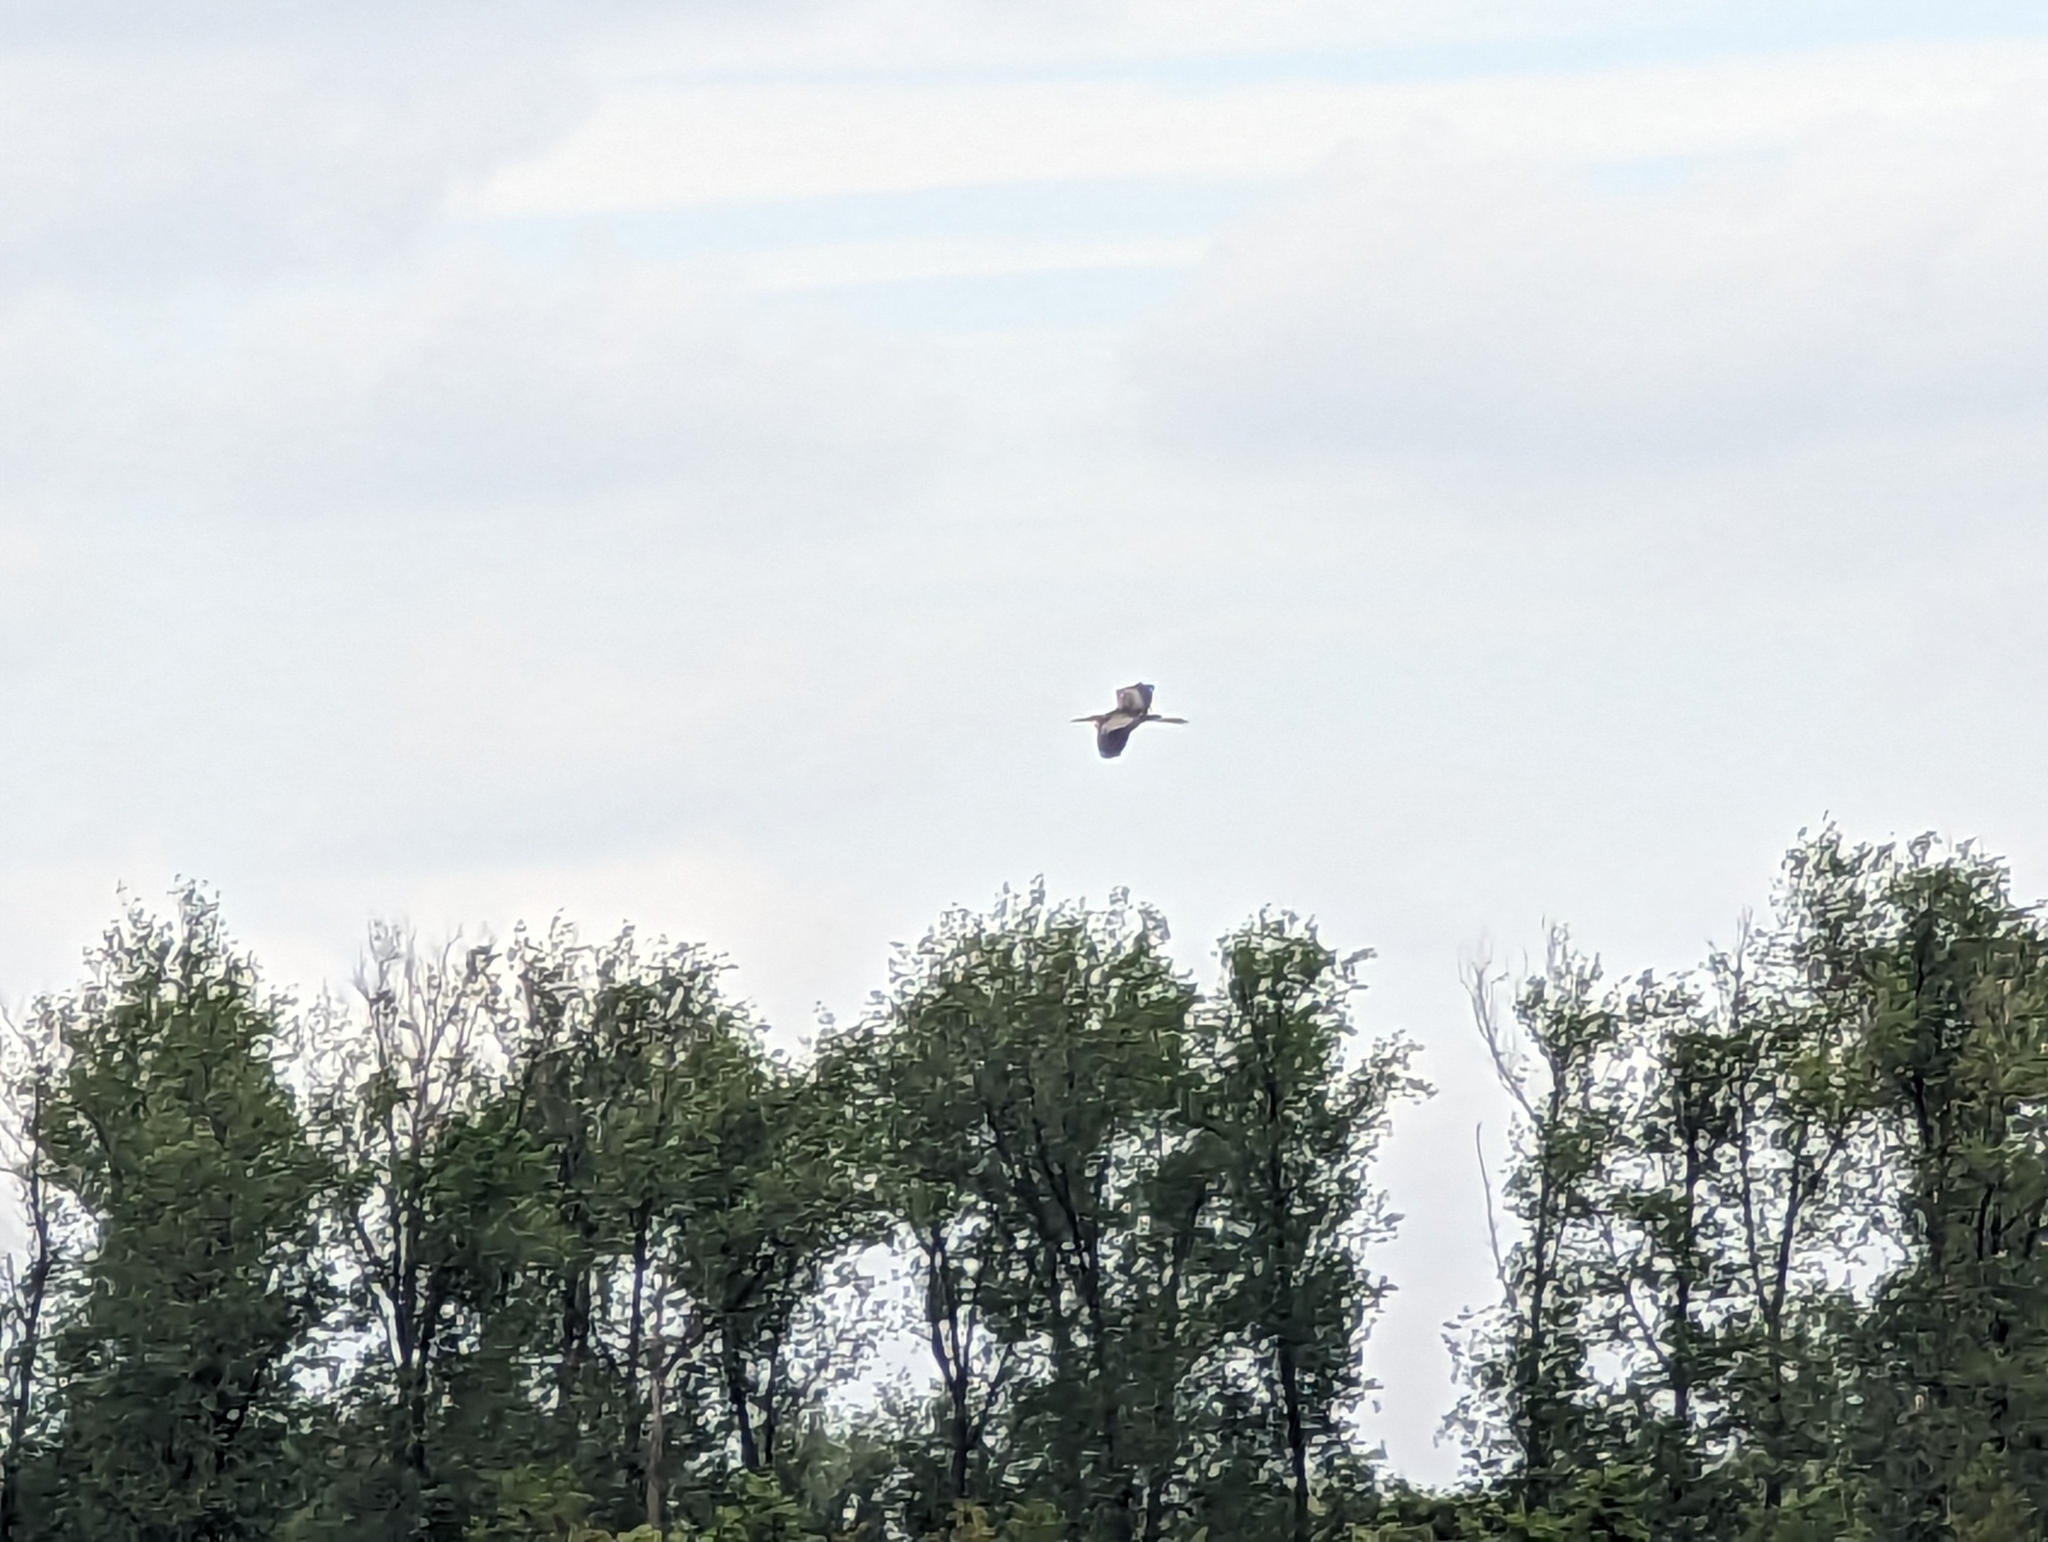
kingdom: Animalia
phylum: Chordata
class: Aves
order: Pelecaniformes
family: Ardeidae
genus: Ardea
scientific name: Ardea purpurea
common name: Purple heron
